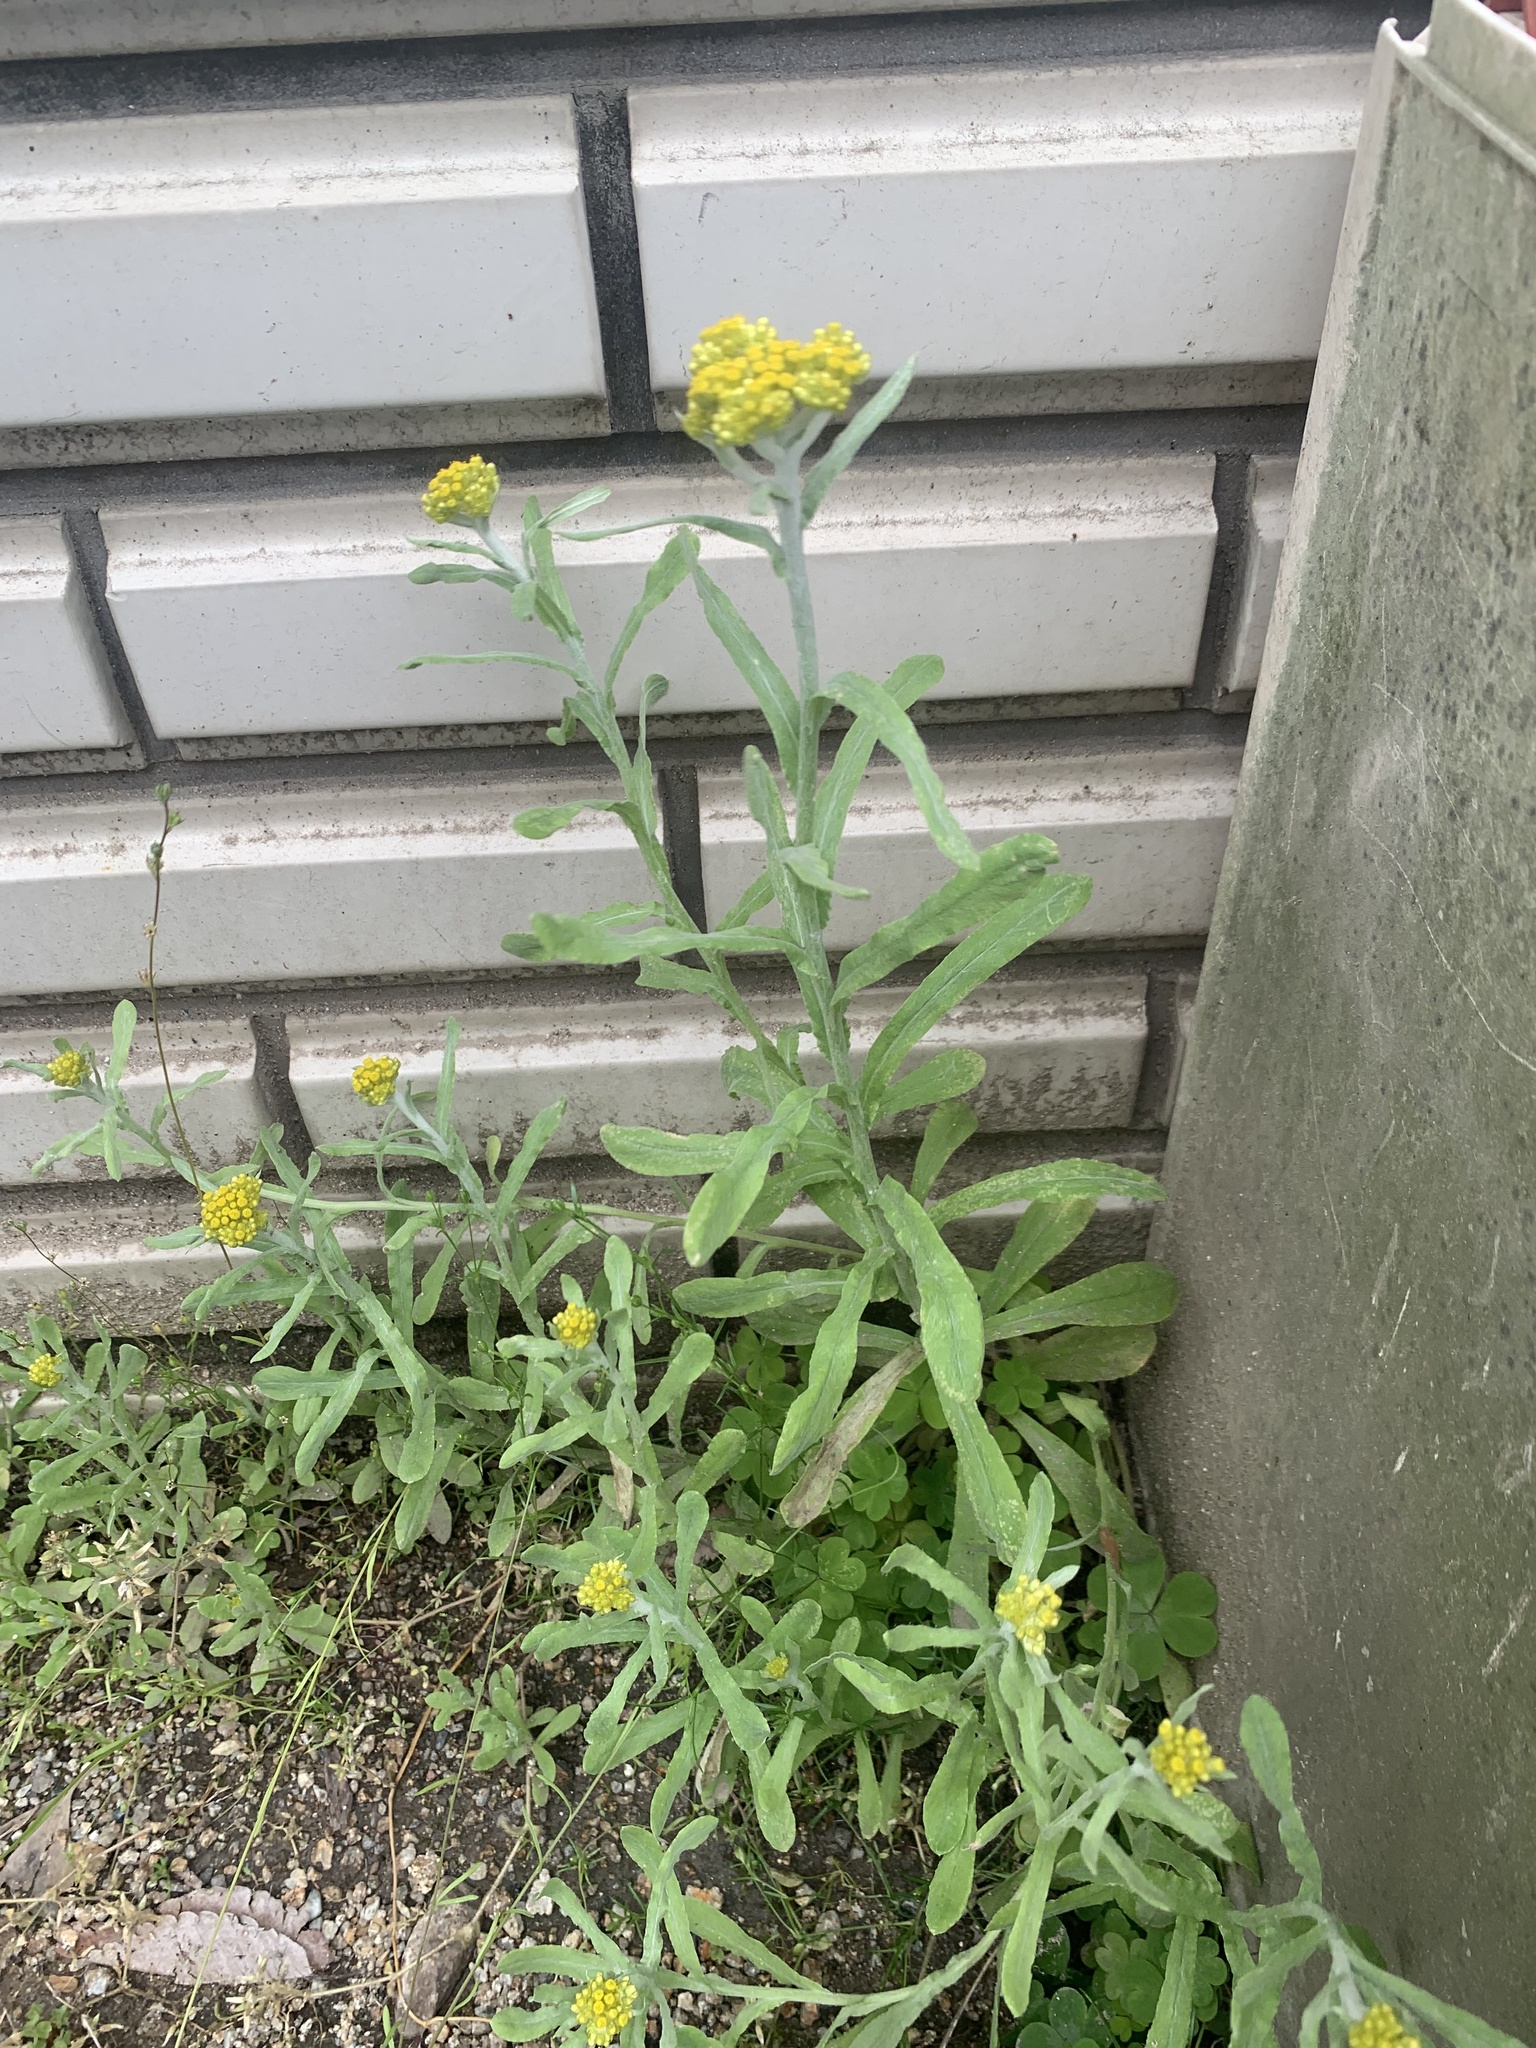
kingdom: Plantae
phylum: Tracheophyta
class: Magnoliopsida
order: Asterales
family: Asteraceae
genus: Pseudognaphalium
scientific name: Pseudognaphalium affine
